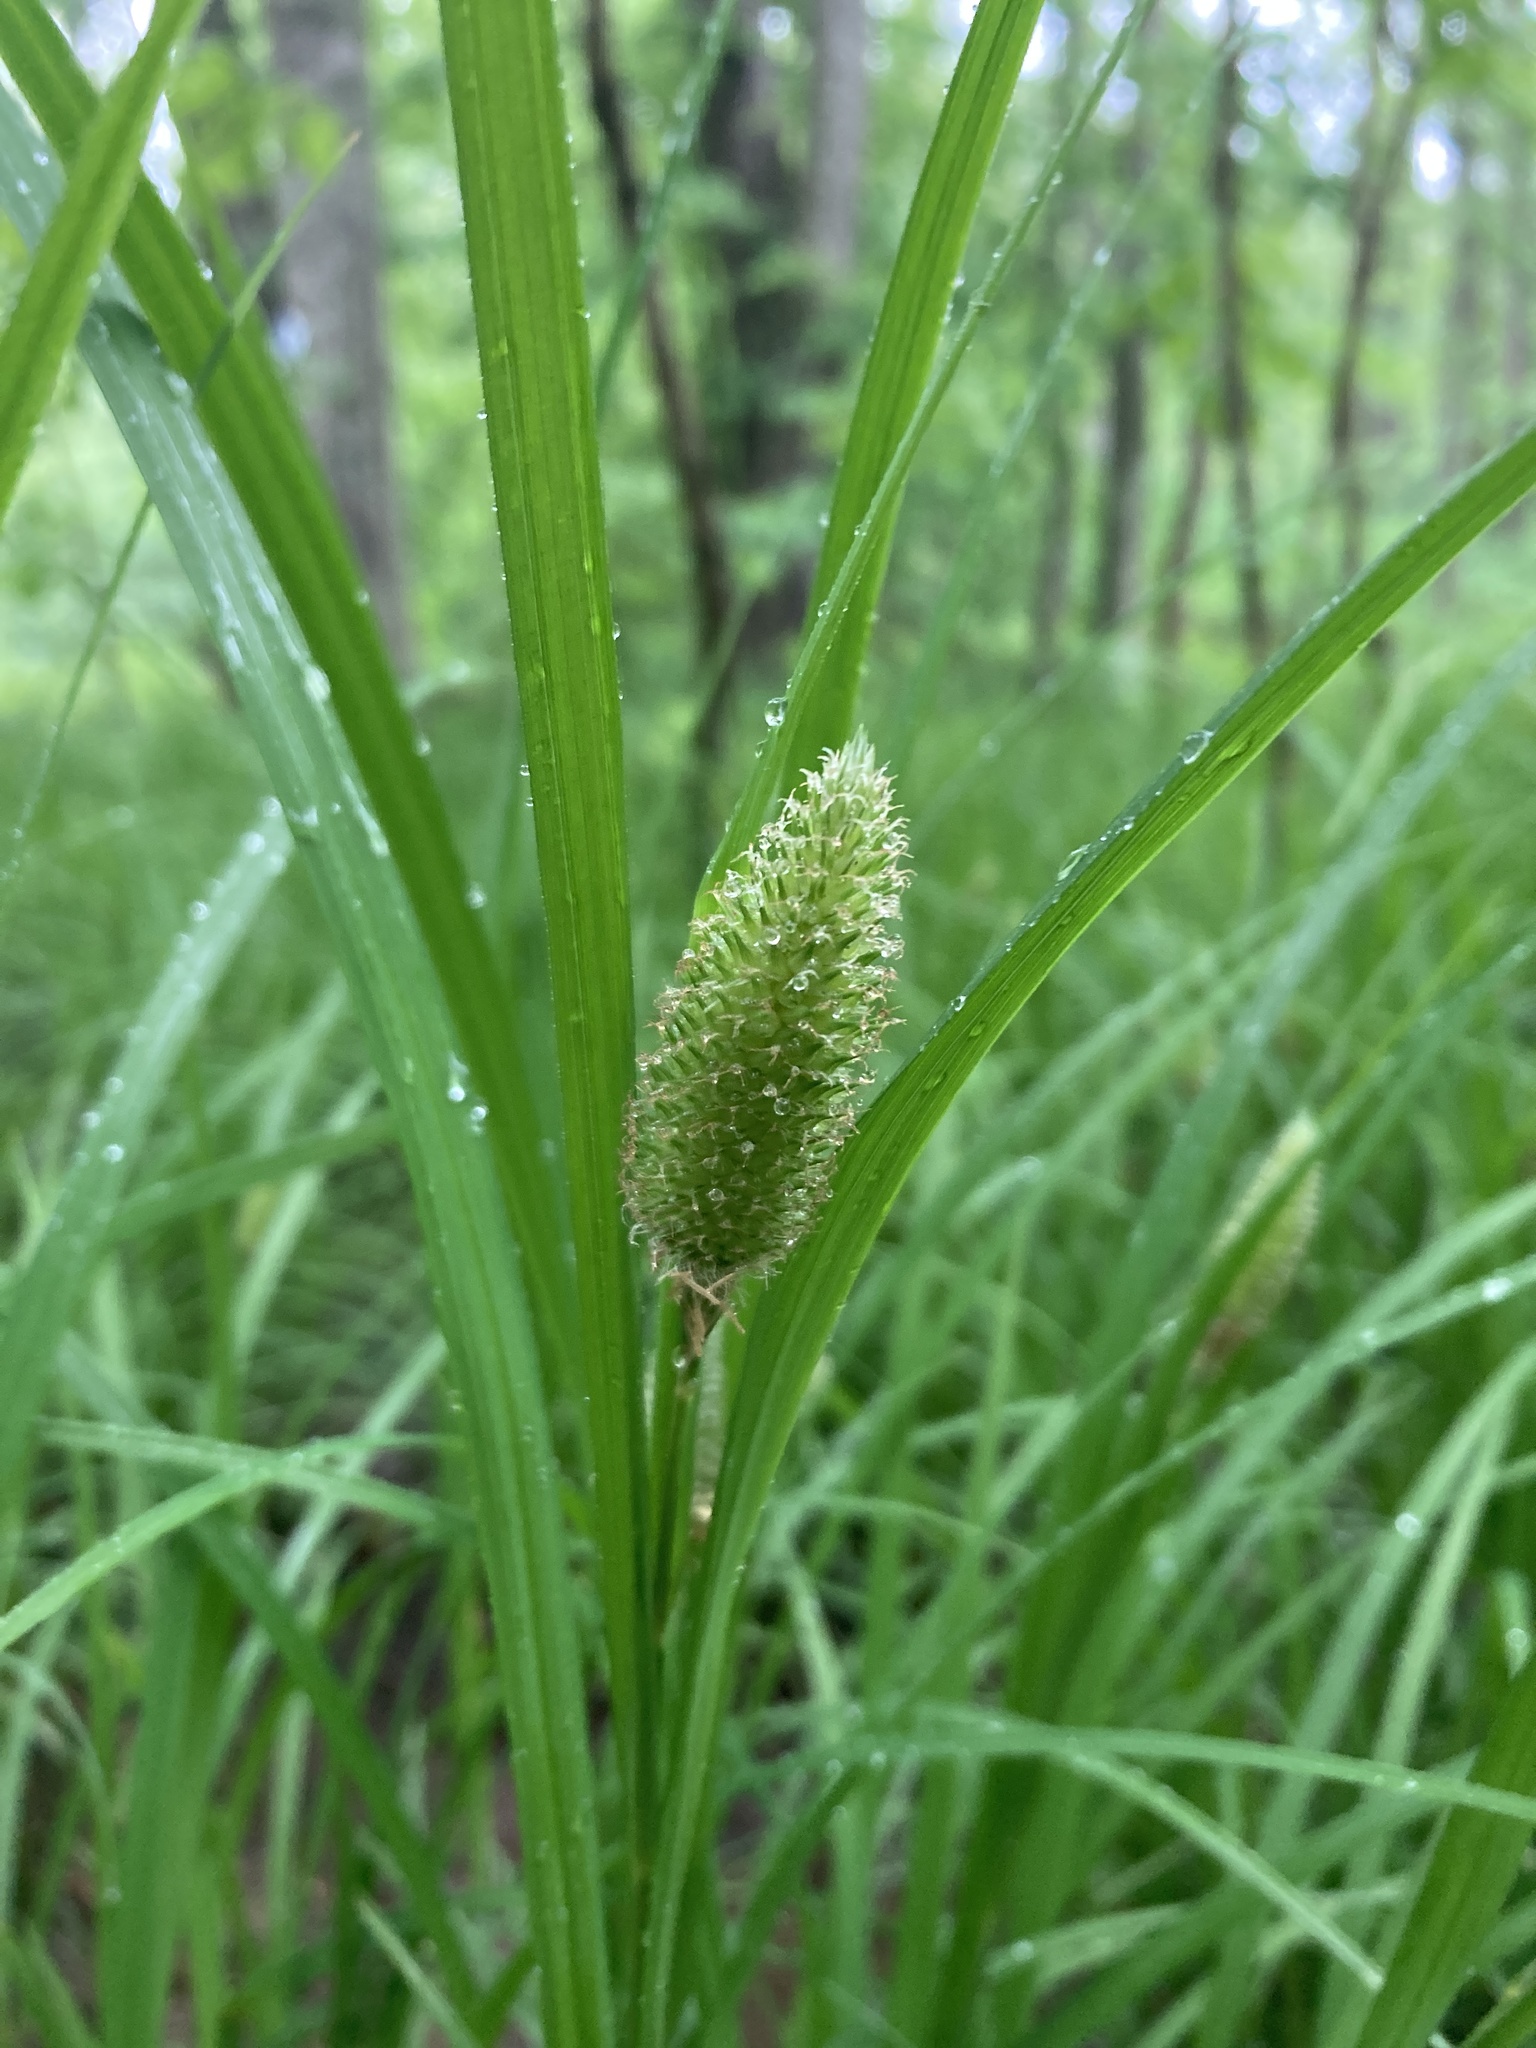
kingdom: Plantae
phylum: Tracheophyta
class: Liliopsida
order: Poales
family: Cyperaceae
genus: Carex
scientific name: Carex typhina
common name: Cattail sedge
